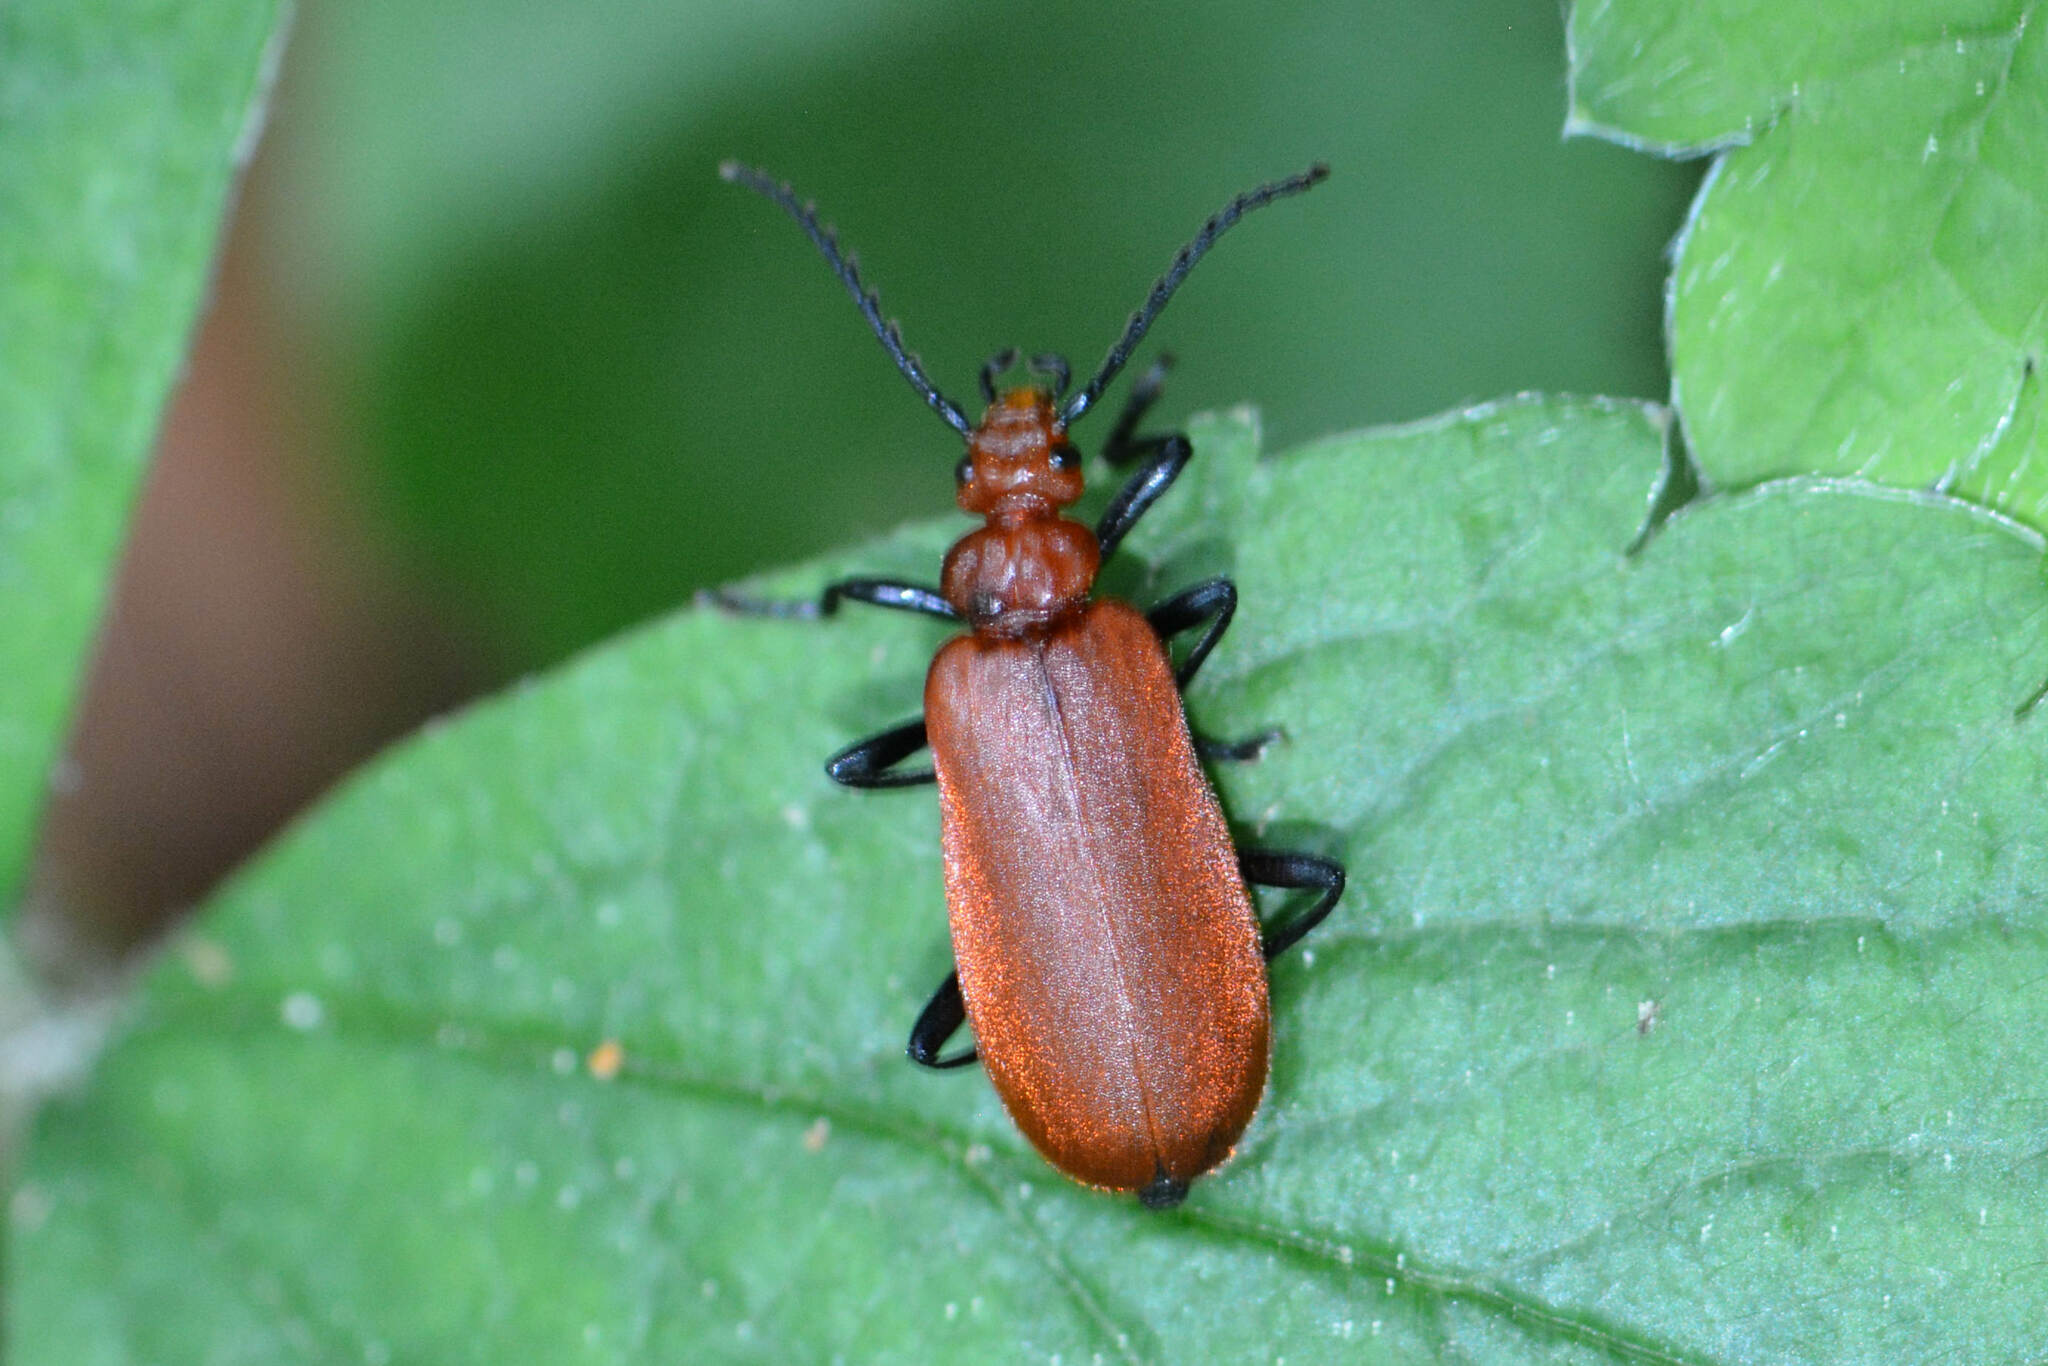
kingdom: Animalia
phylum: Arthropoda
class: Insecta
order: Coleoptera
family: Pyrochroidae
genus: Pyrochroa
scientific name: Pyrochroa serraticornis
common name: Red-headed cardinal beetle
